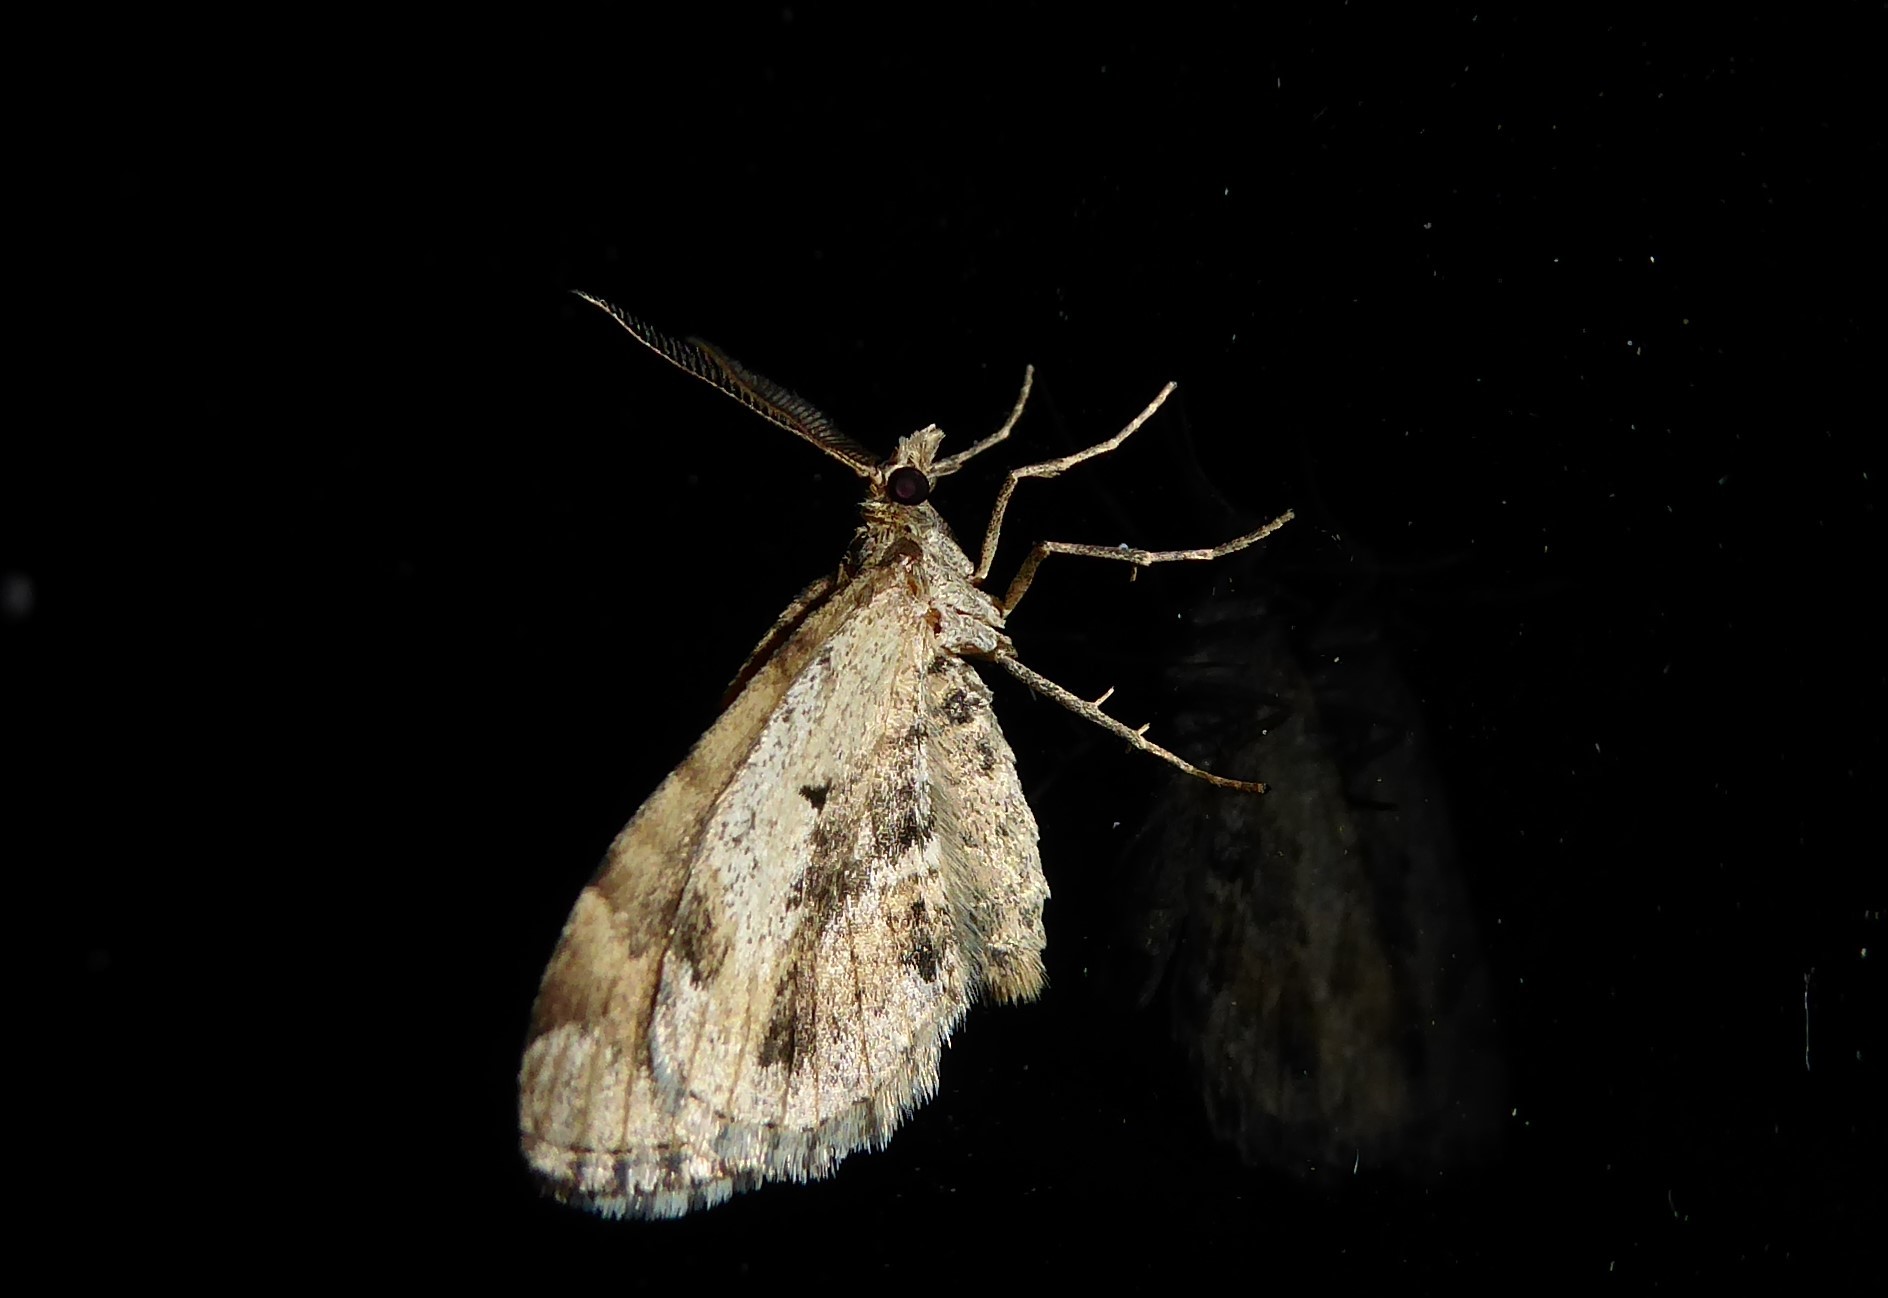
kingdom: Animalia
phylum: Arthropoda
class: Insecta
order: Lepidoptera
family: Geometridae
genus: Asaphodes
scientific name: Asaphodes aegrota
